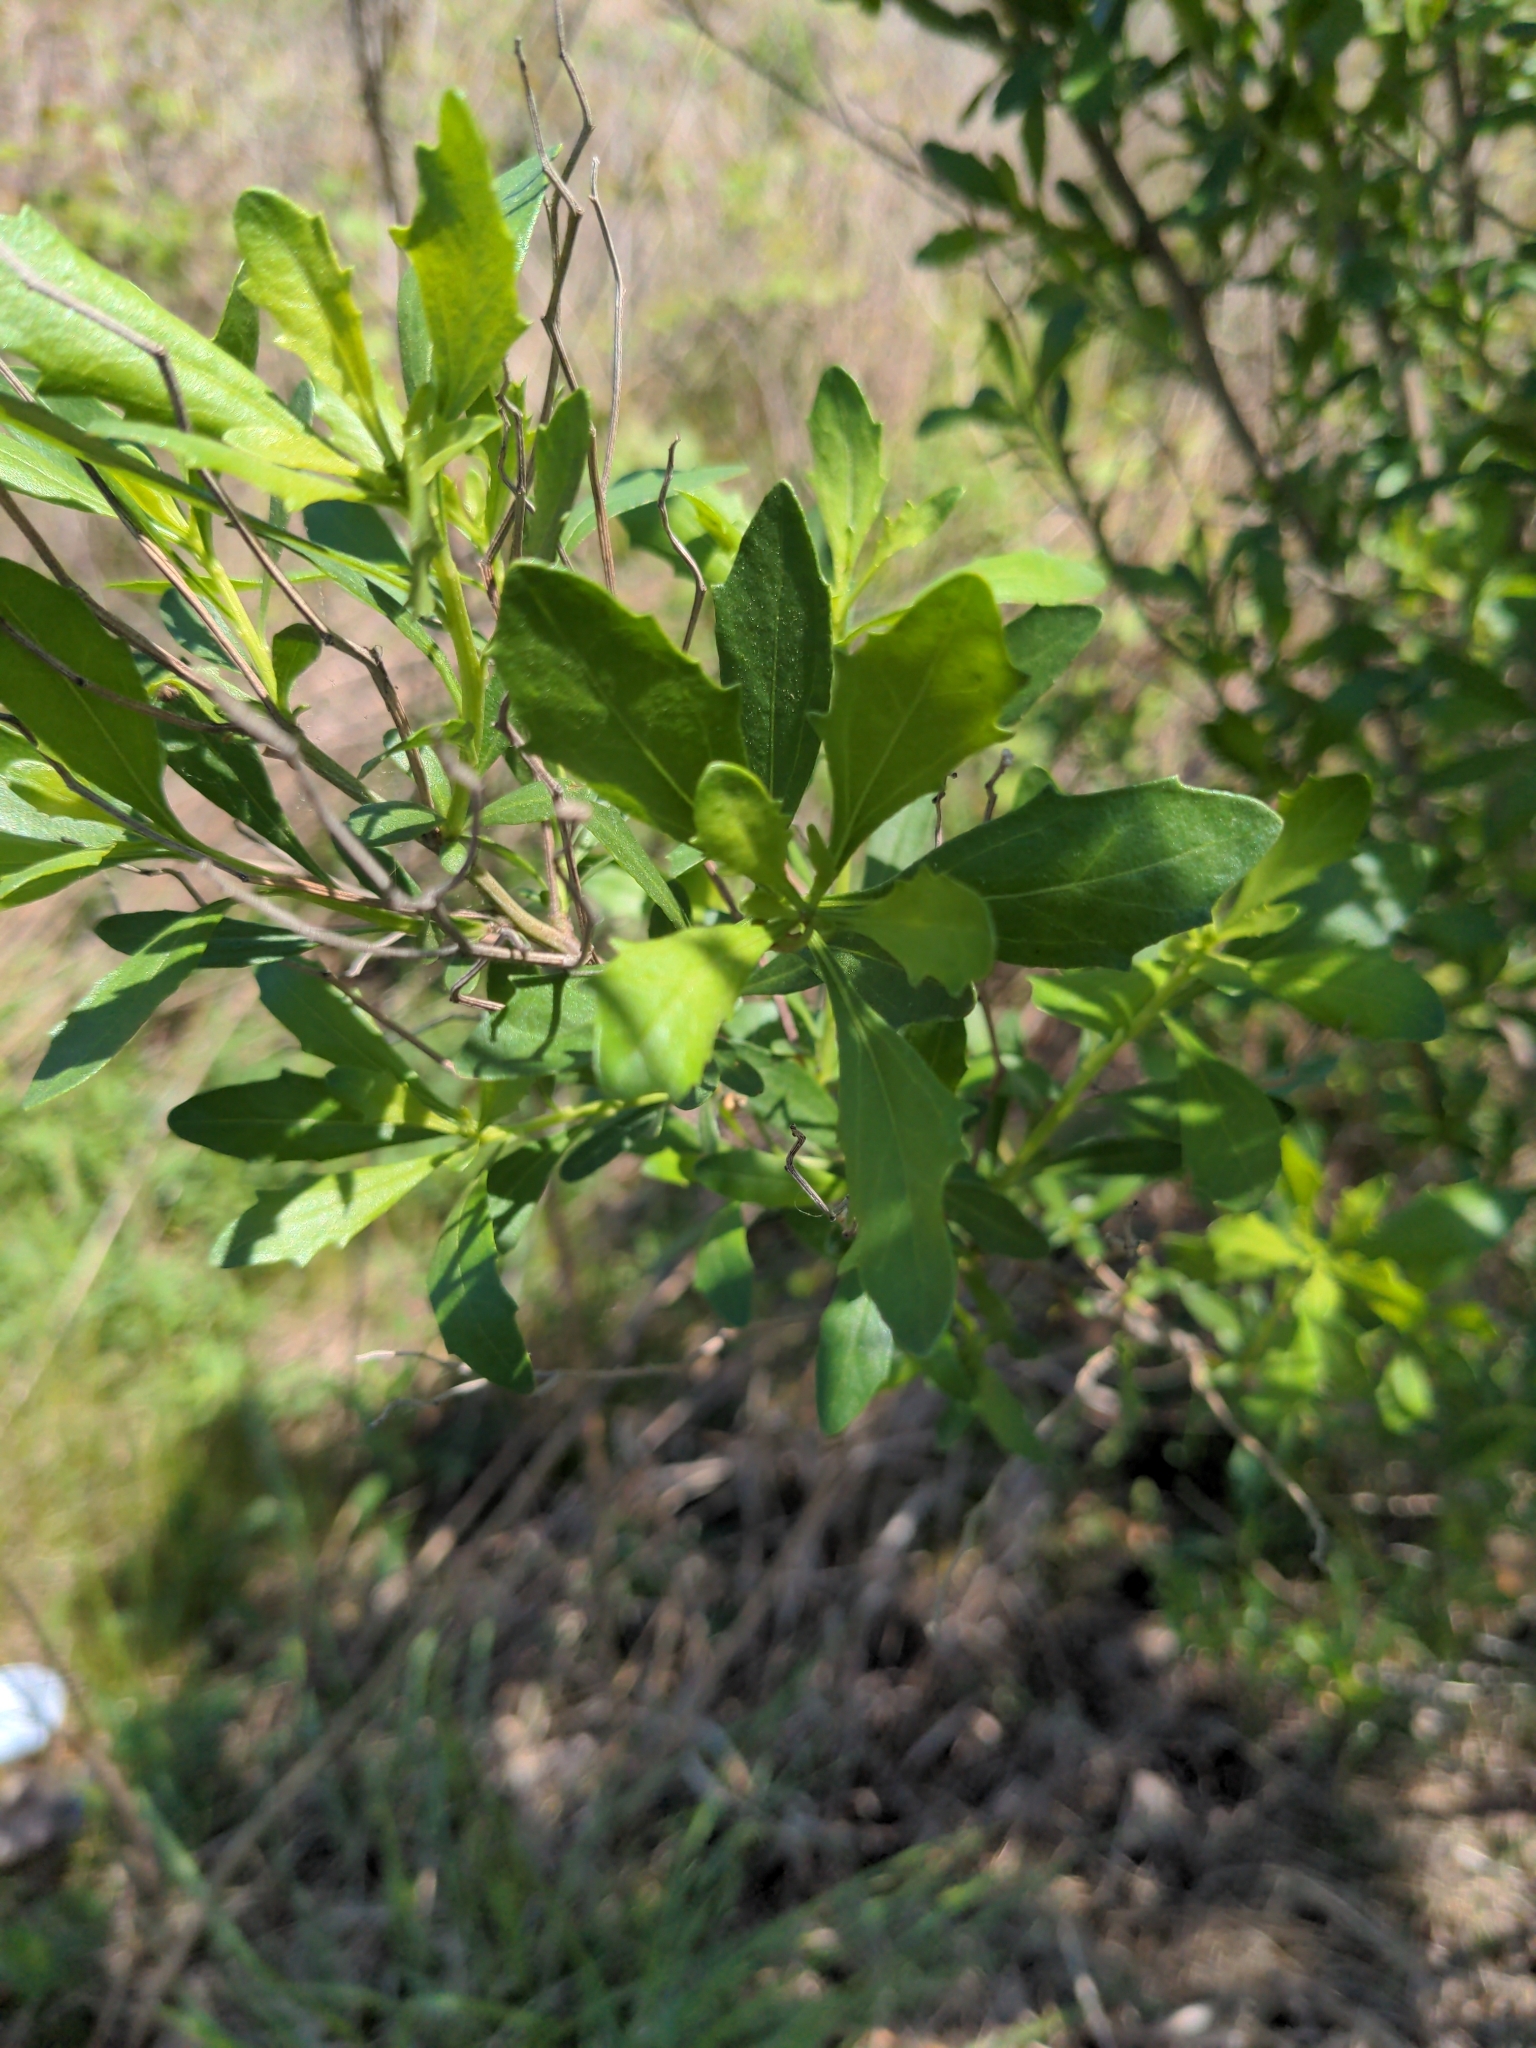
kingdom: Plantae
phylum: Tracheophyta
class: Magnoliopsida
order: Asterales
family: Asteraceae
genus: Baccharis
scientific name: Baccharis halimifolia
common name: Eastern baccharis
